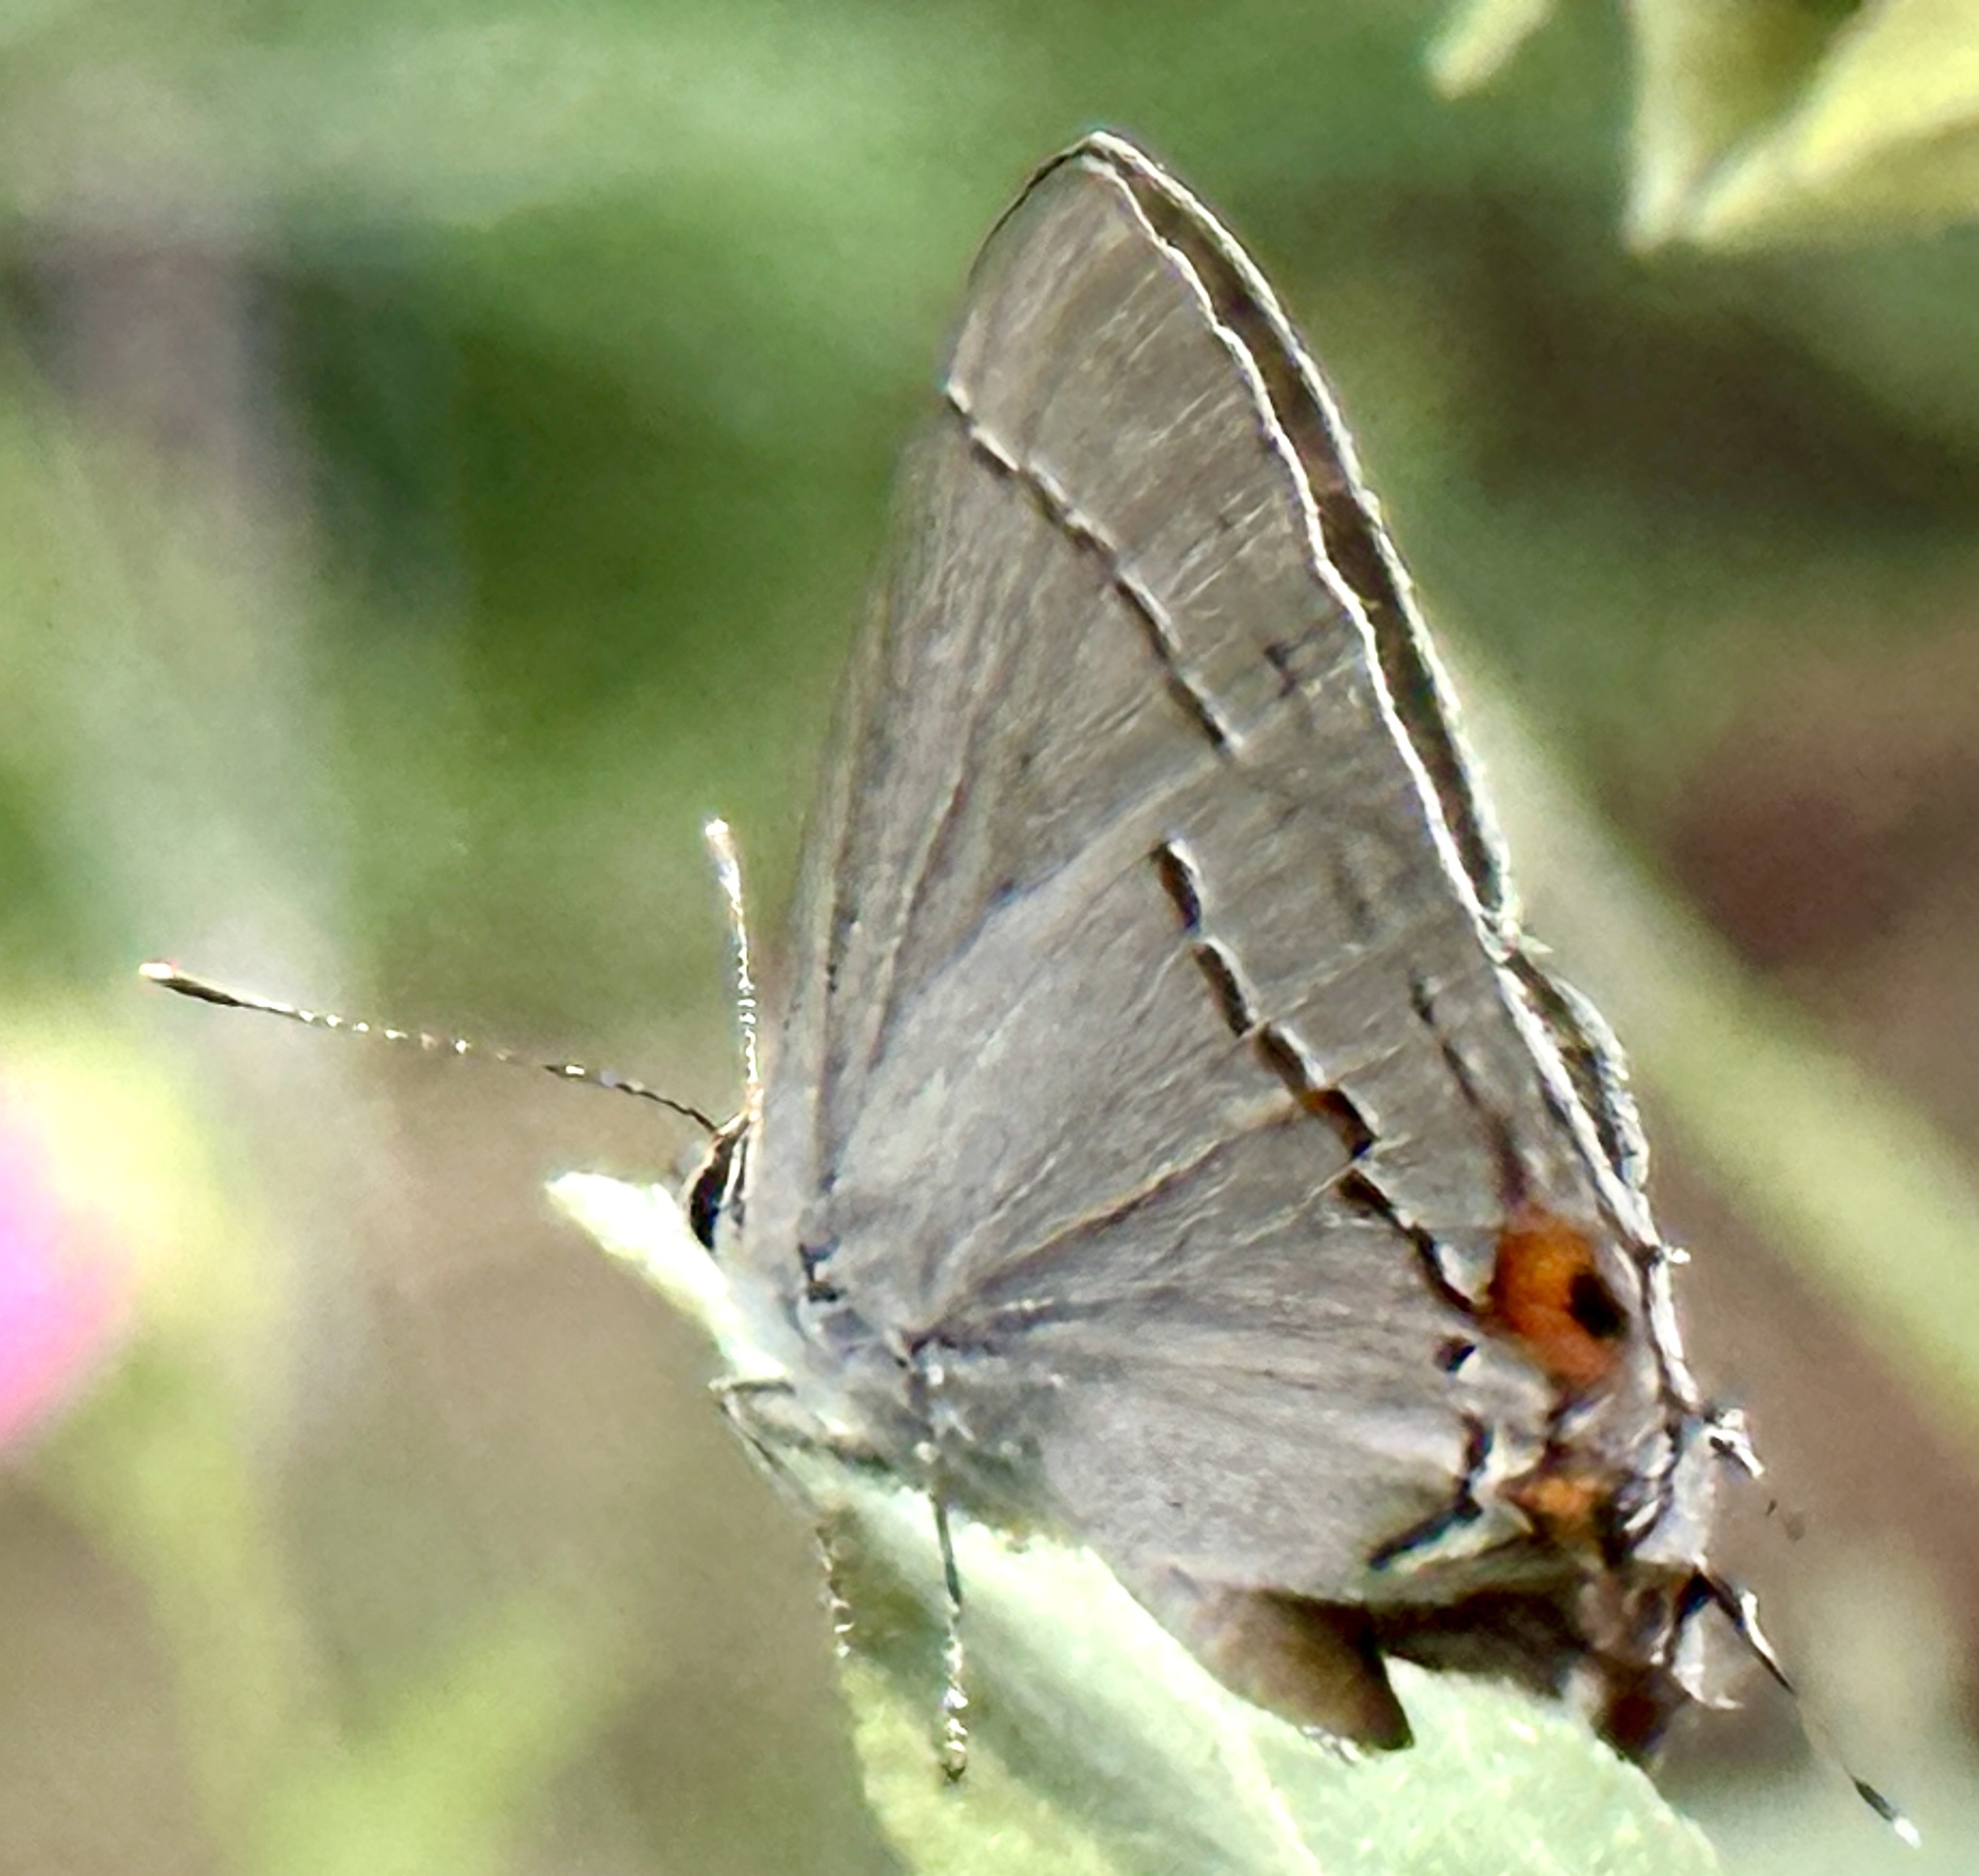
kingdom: Animalia
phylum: Arthropoda
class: Insecta
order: Lepidoptera
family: Lycaenidae
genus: Strymon
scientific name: Strymon melinus
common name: Gray hairstreak
